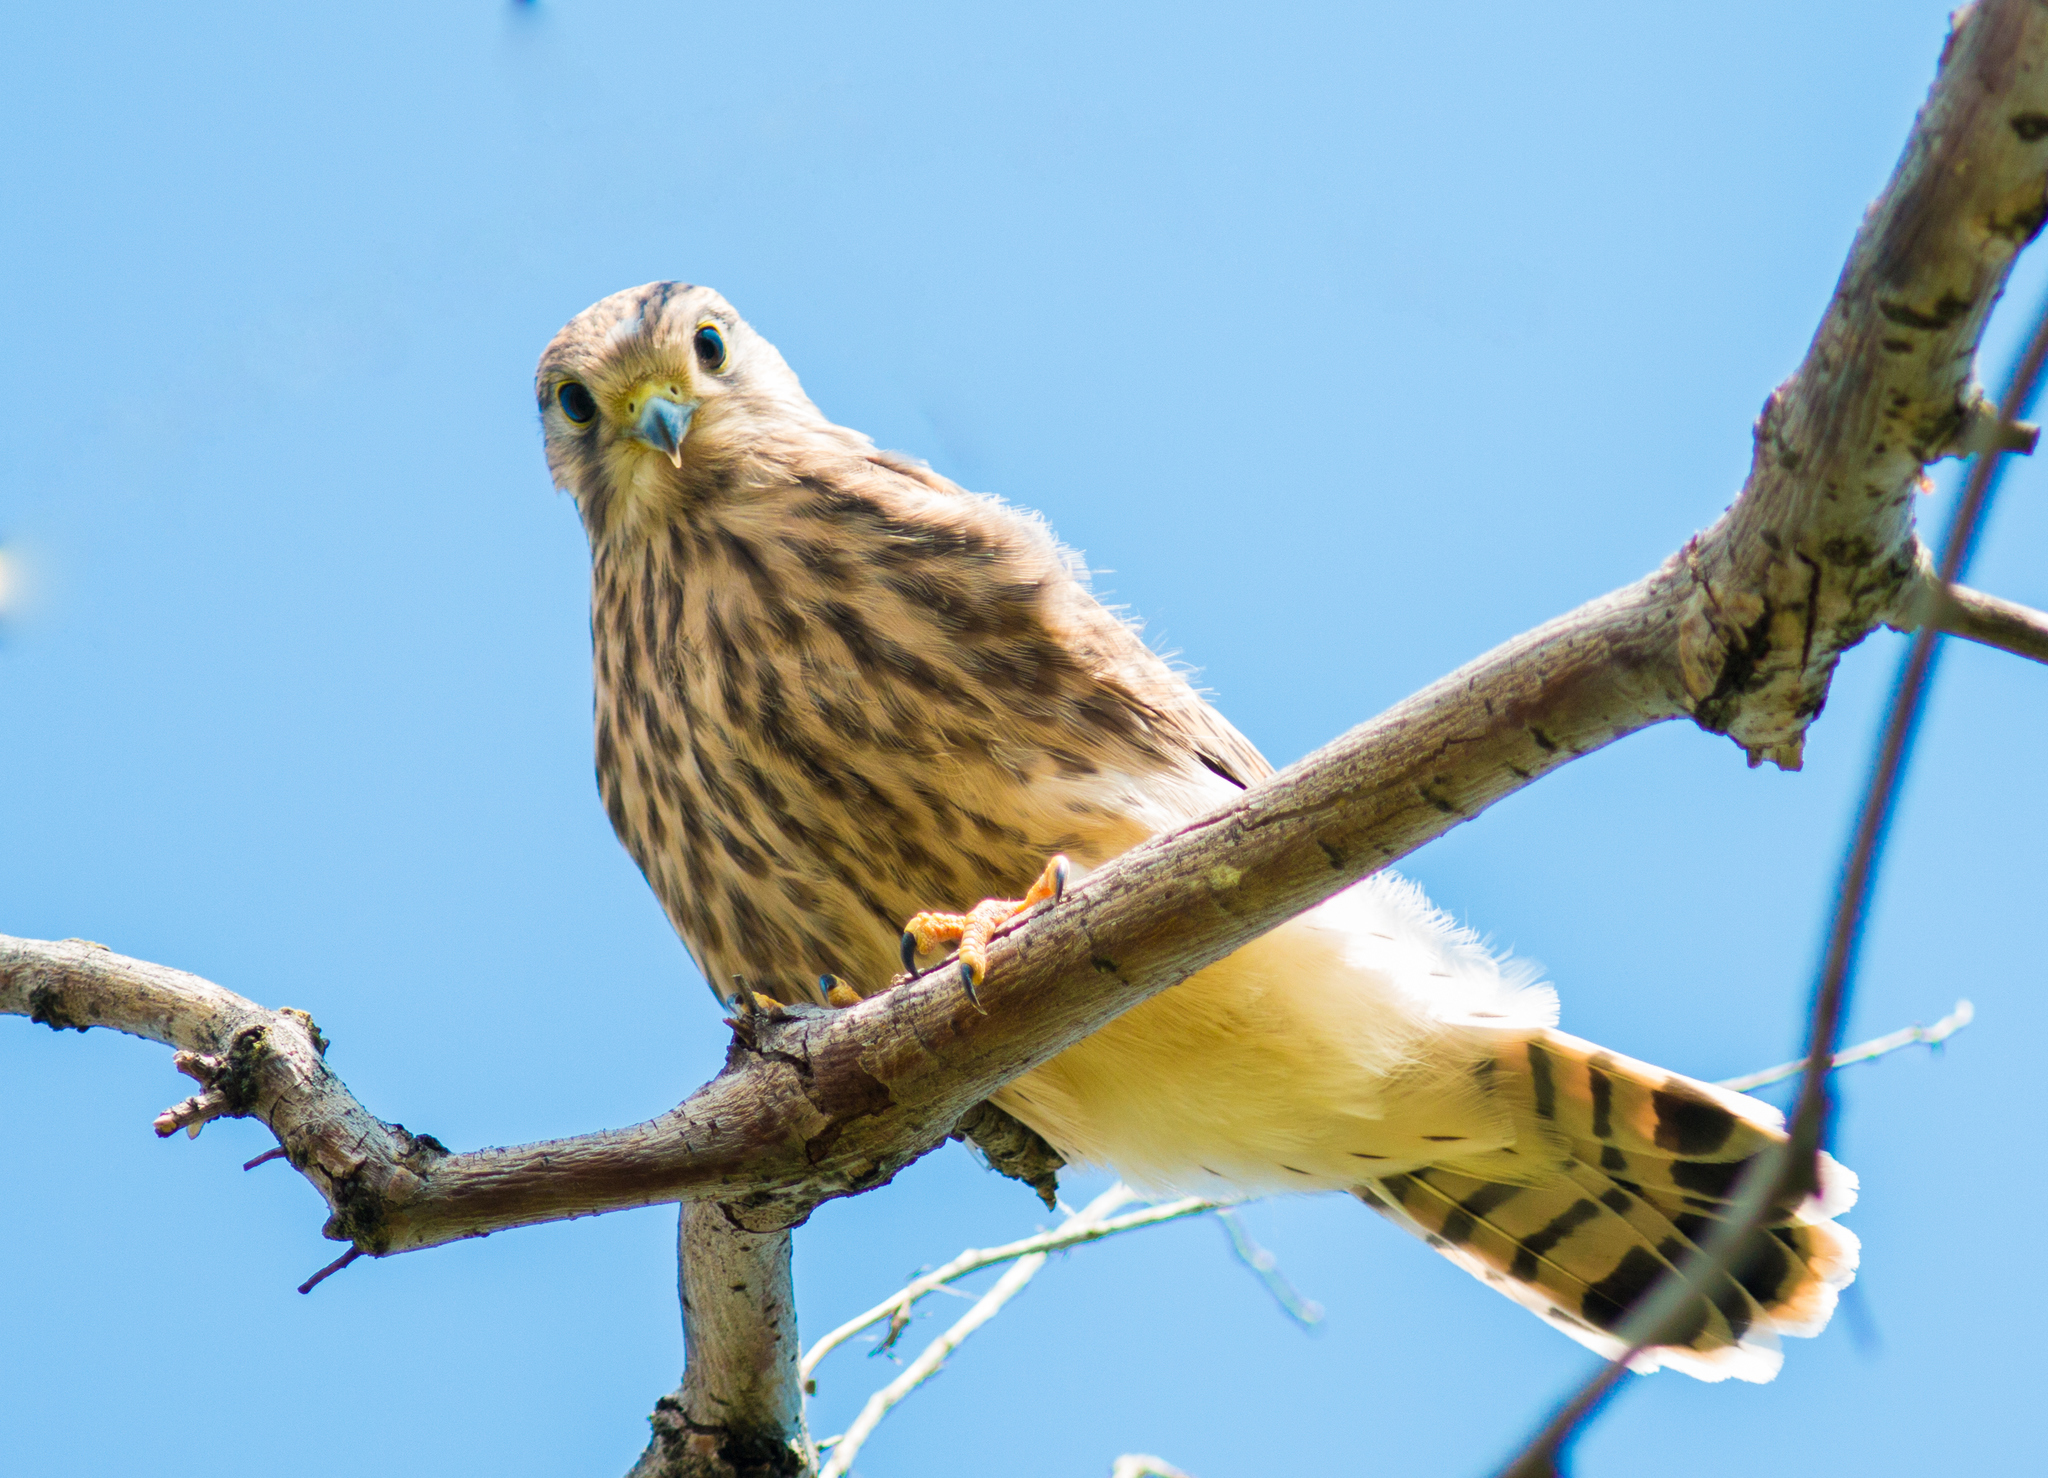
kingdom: Animalia
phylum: Chordata
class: Aves
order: Falconiformes
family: Falconidae
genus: Falco
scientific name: Falco tinnunculus
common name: Common kestrel
